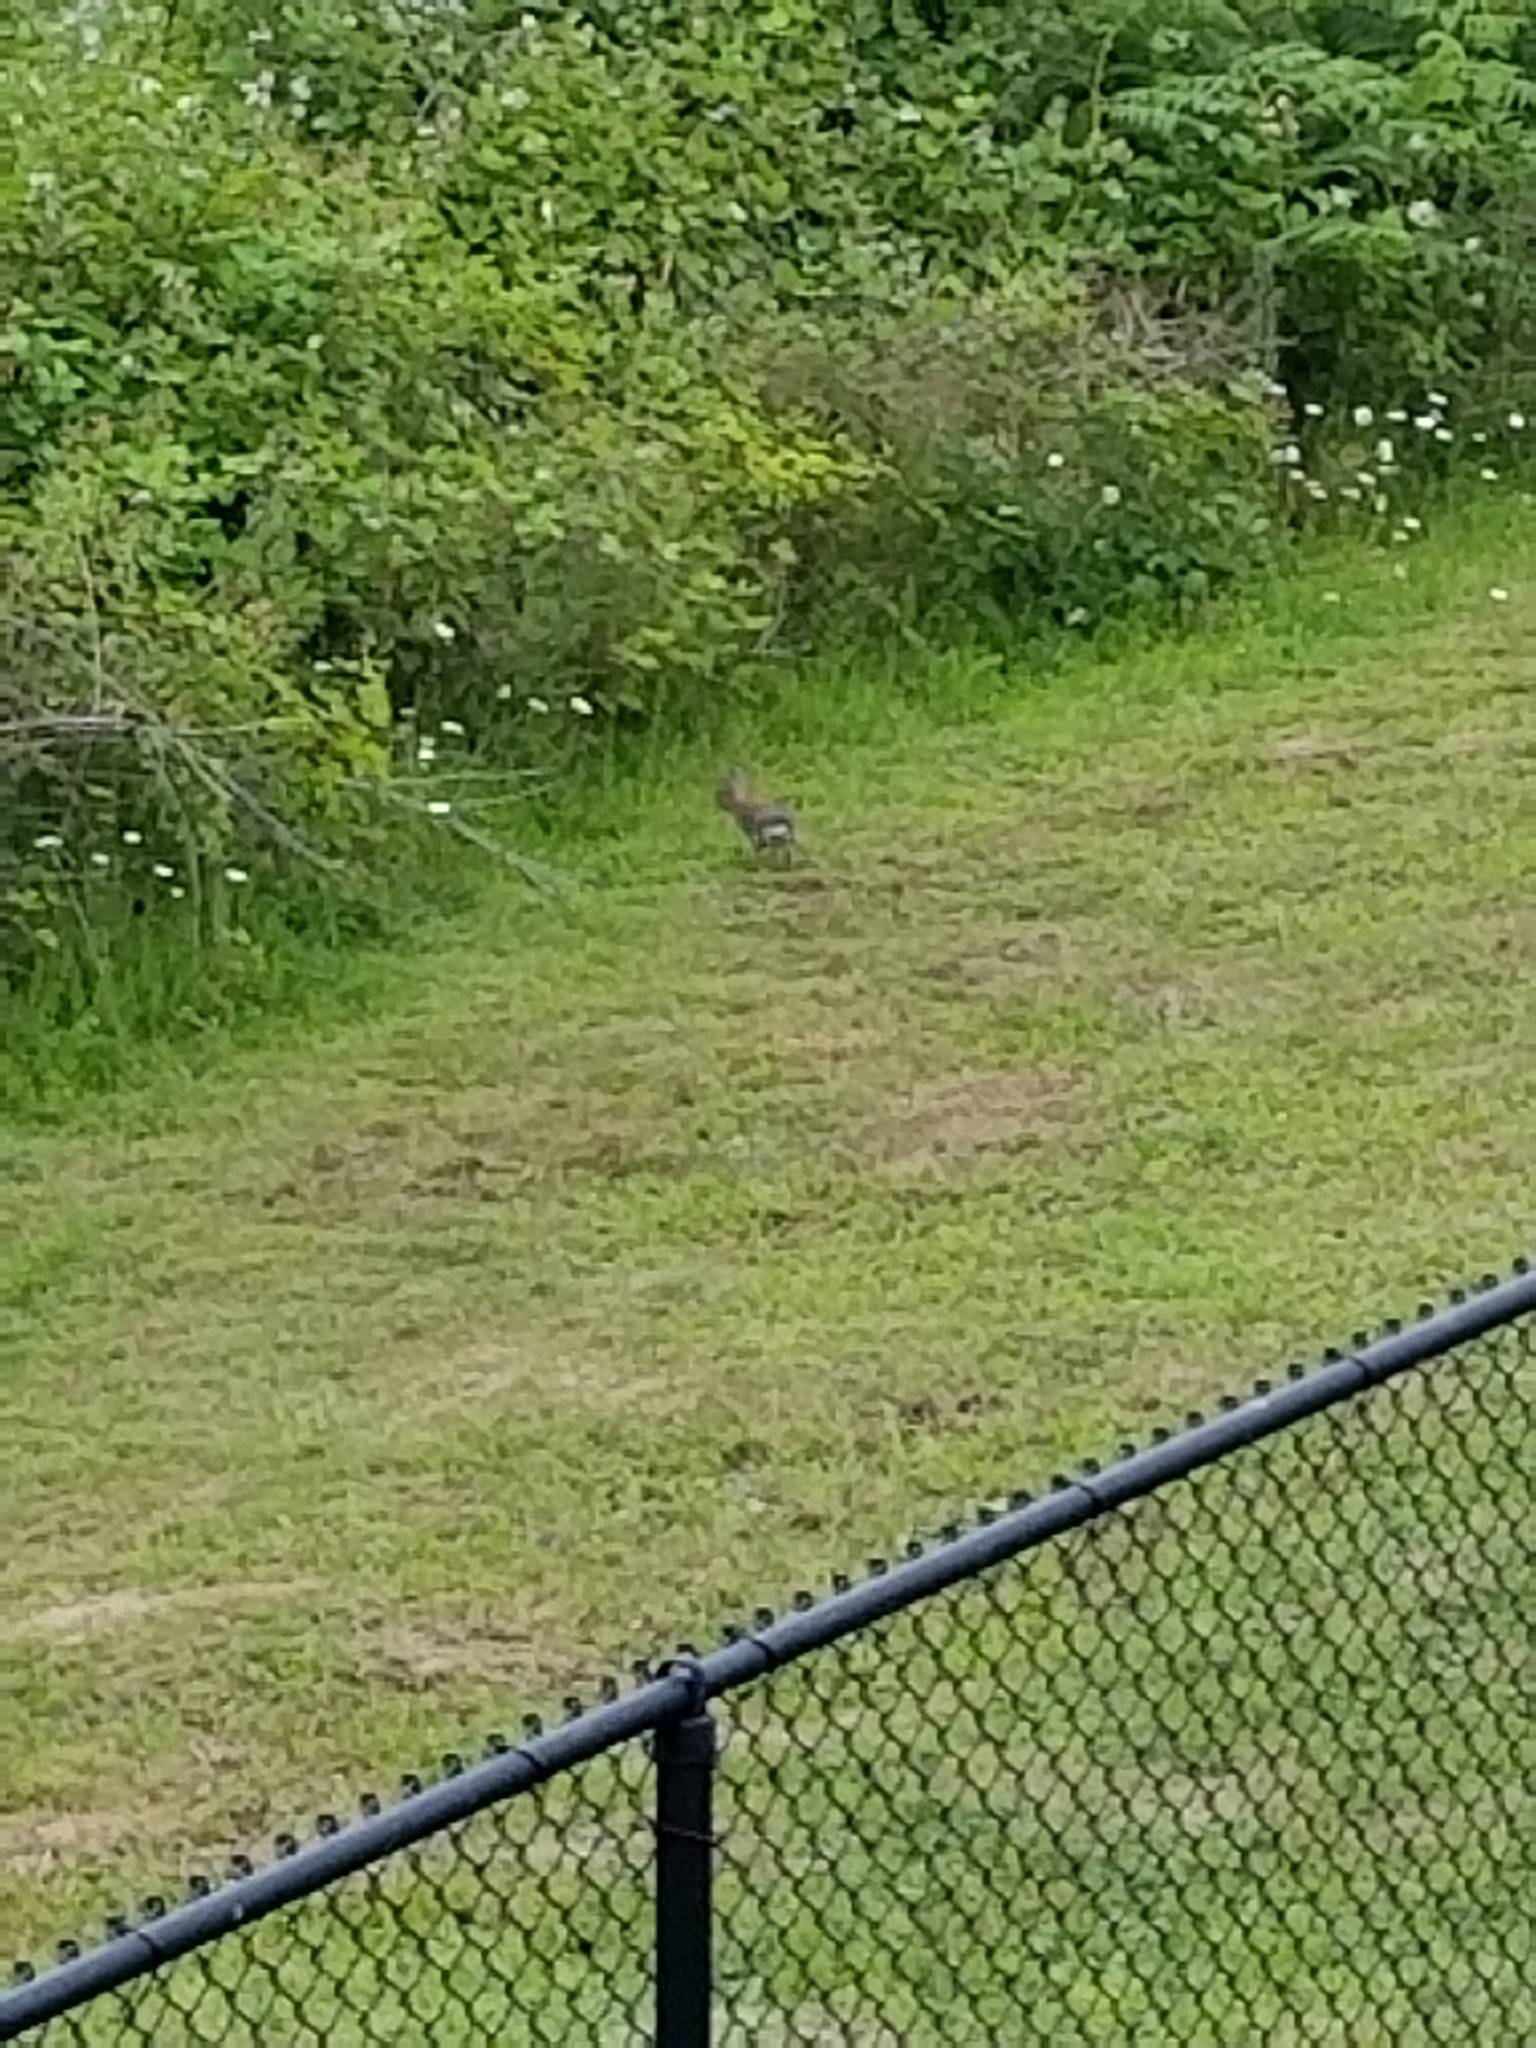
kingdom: Animalia
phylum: Chordata
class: Mammalia
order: Lagomorpha
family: Leporidae
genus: Sylvilagus
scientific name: Sylvilagus floridanus
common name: Eastern cottontail
